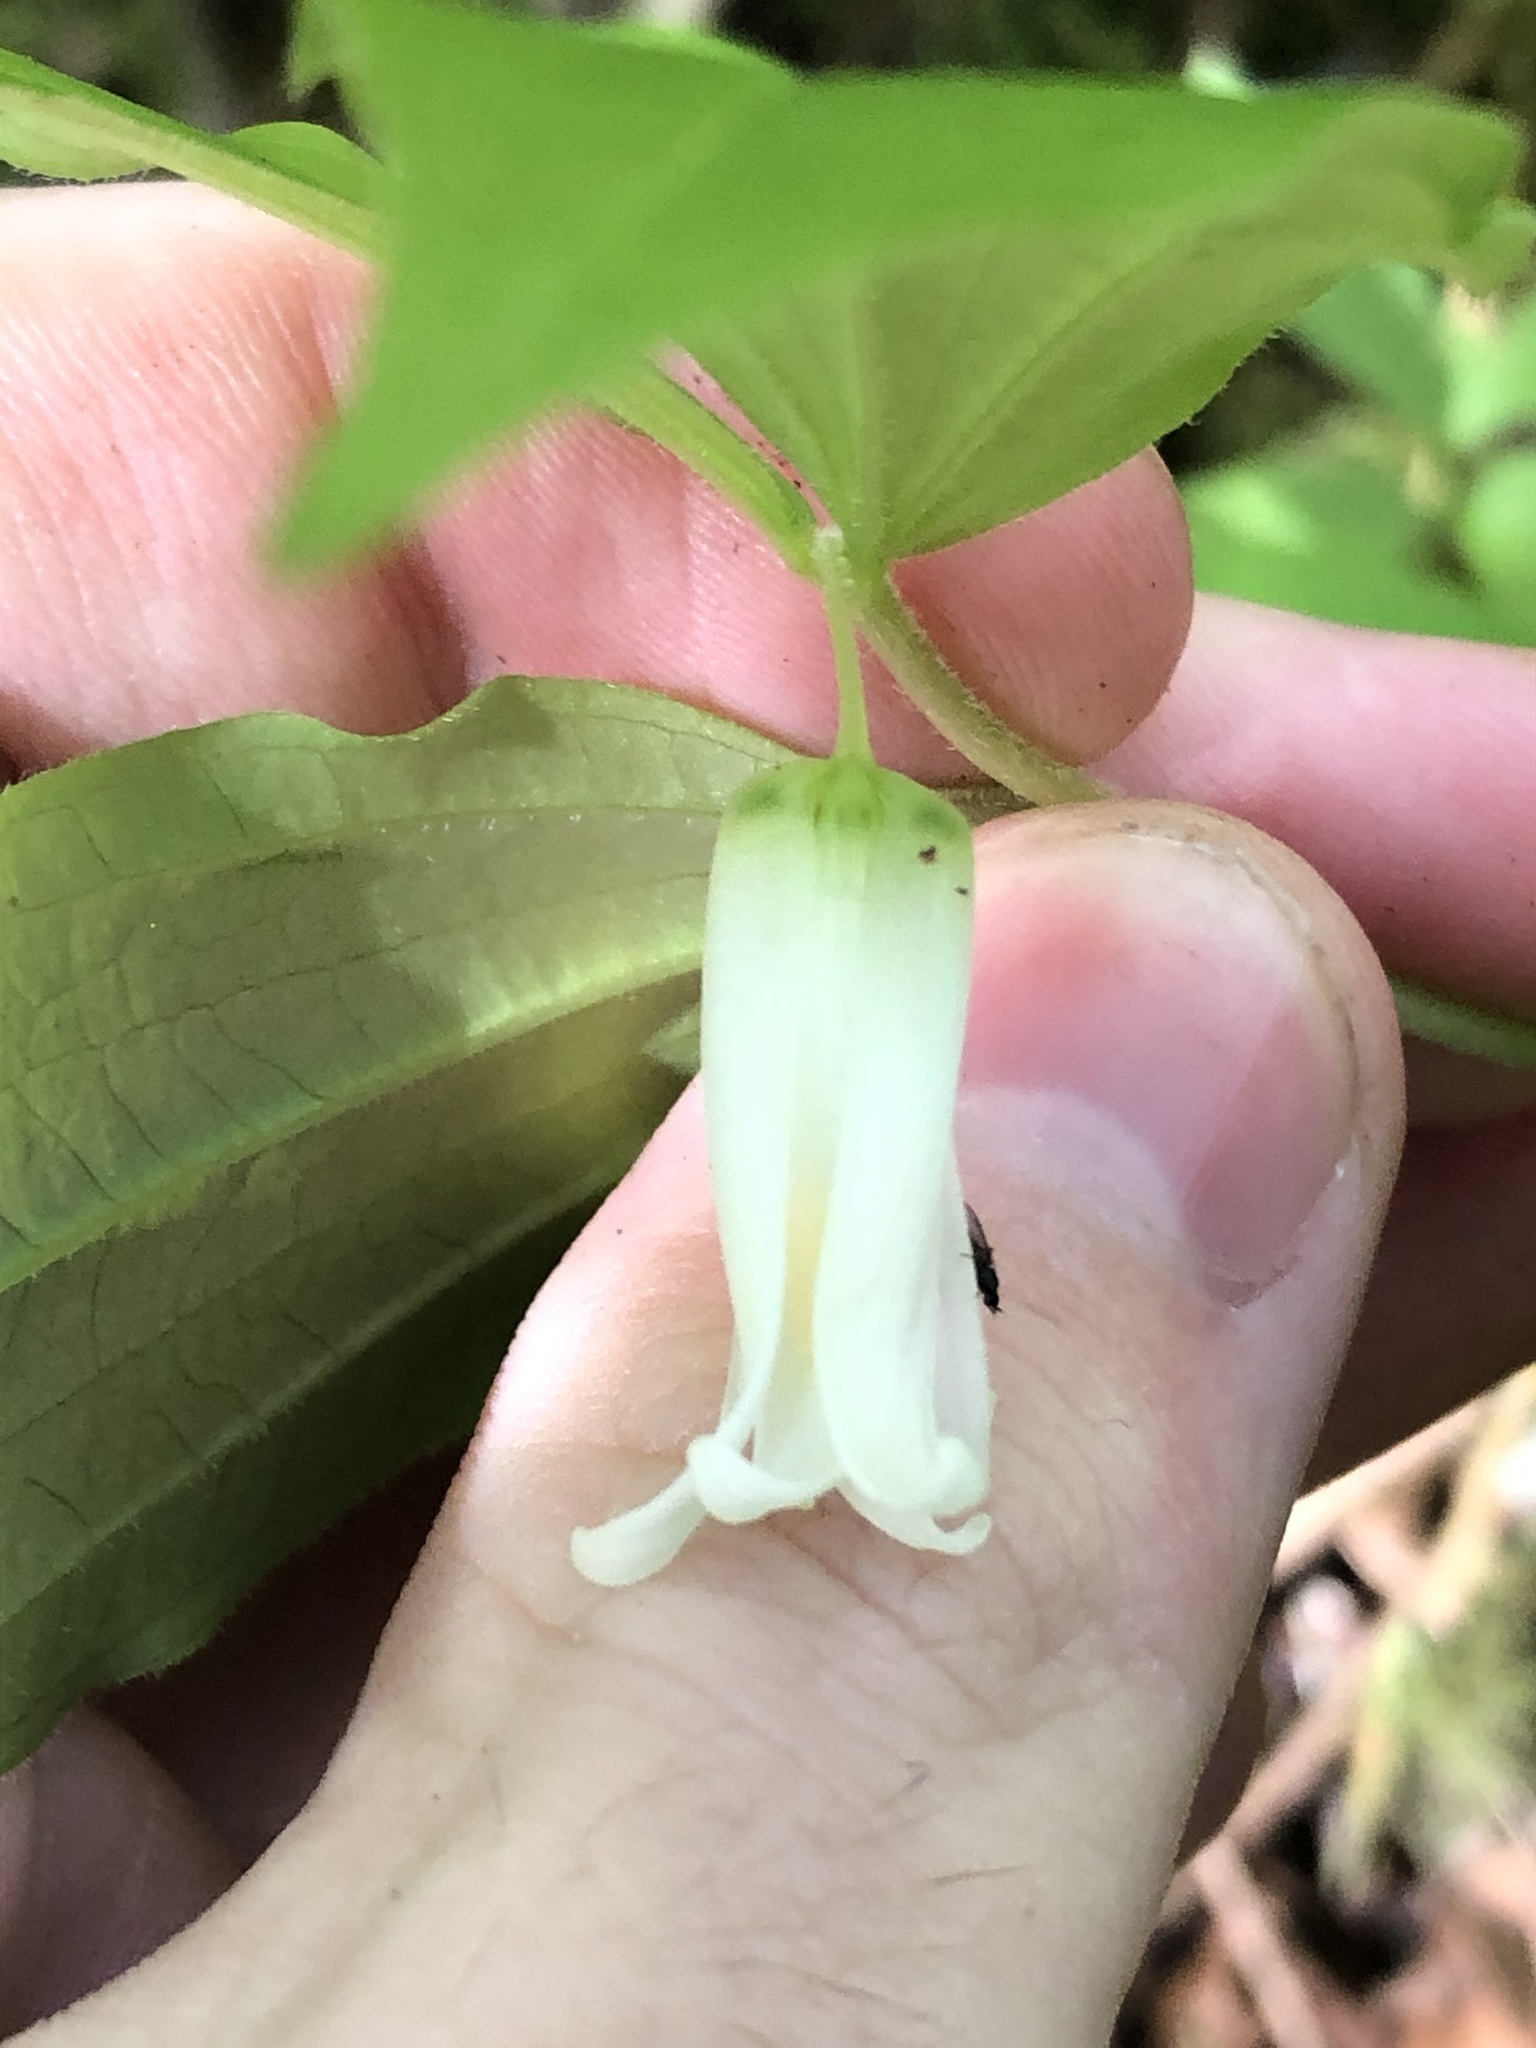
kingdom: Plantae
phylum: Tracheophyta
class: Liliopsida
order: Liliales
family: Liliaceae
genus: Prosartes
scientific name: Prosartes smithii
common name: Fairy-lantern
